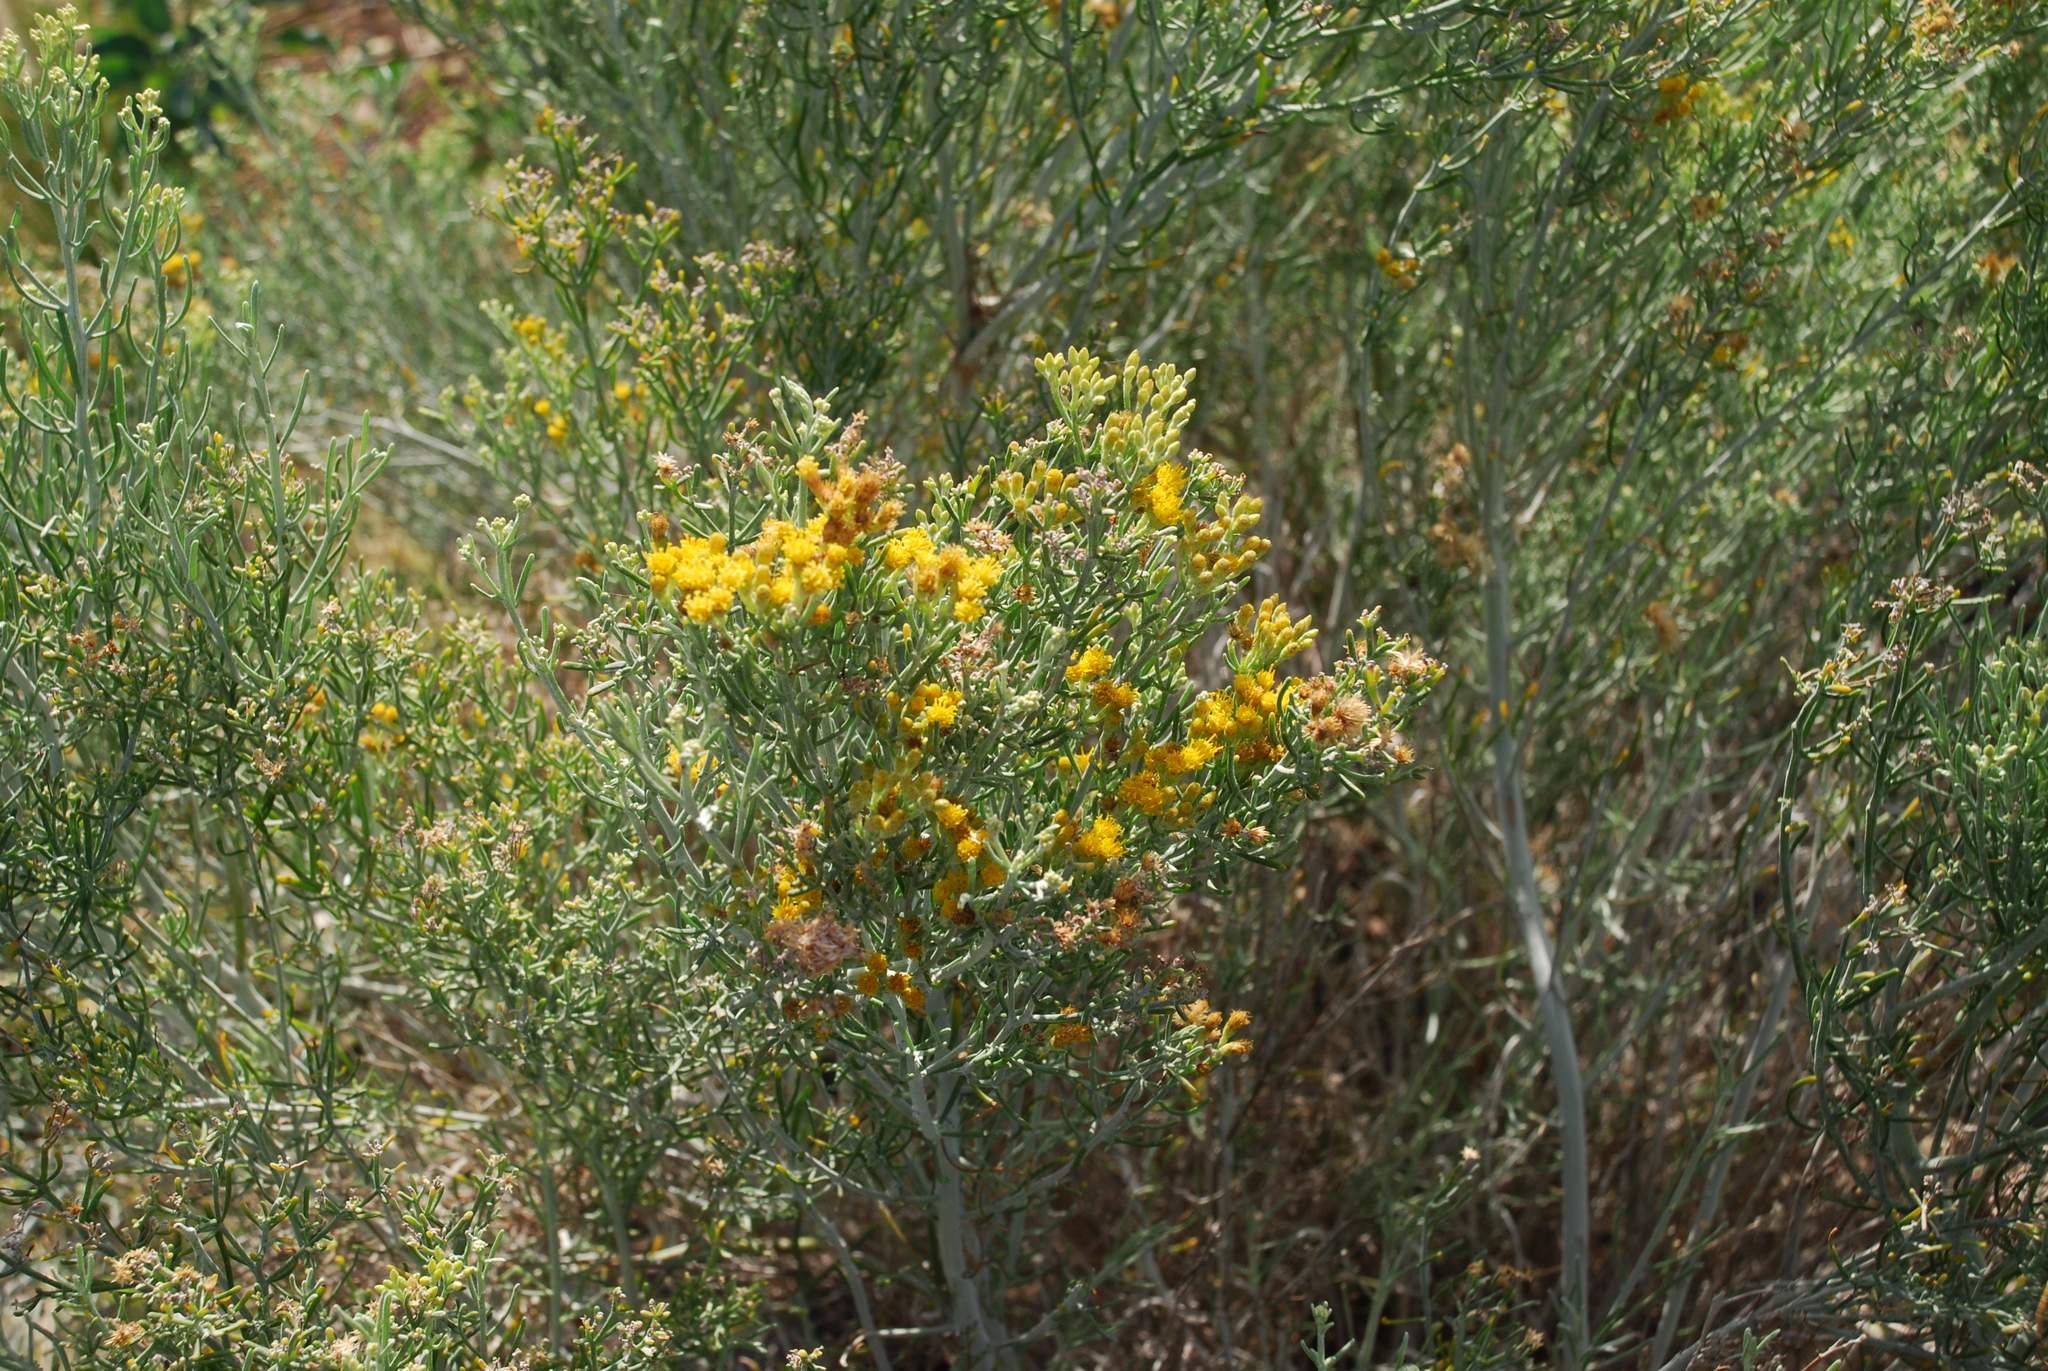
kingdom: Plantae
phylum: Tracheophyta
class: Magnoliopsida
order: Asterales
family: Asteraceae
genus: Schizogyne
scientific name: Schizogyne sericea
